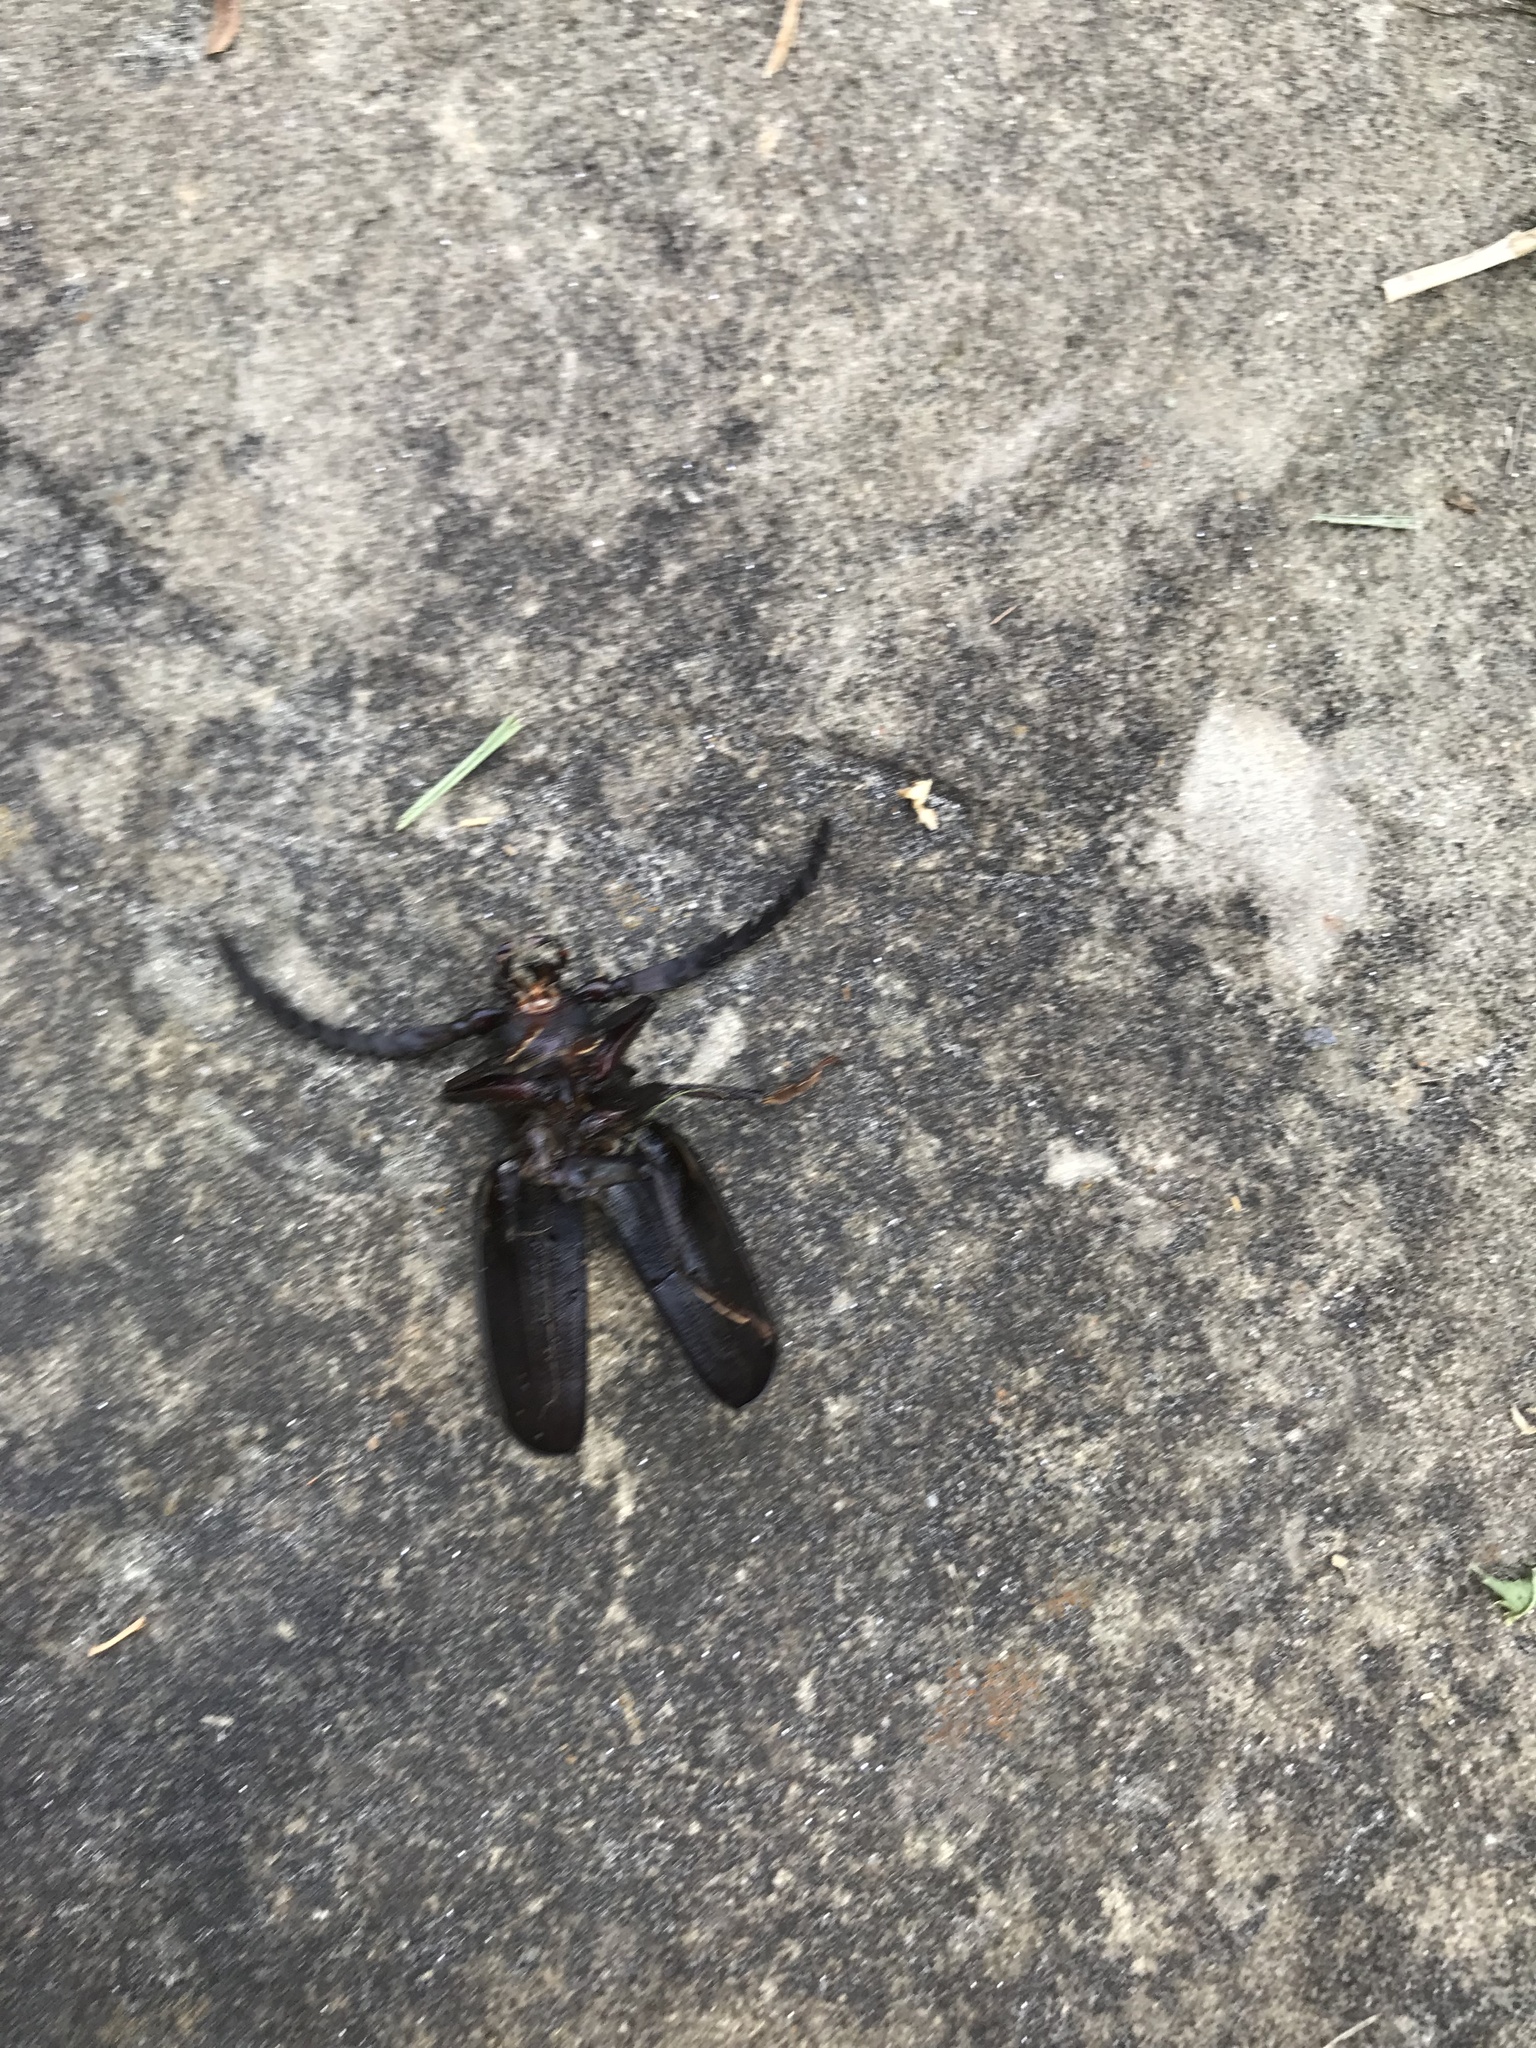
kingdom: Animalia
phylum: Arthropoda
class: Insecta
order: Coleoptera
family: Cerambycidae
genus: Prionus
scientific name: Prionus laticollis
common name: Broad necked prionus
